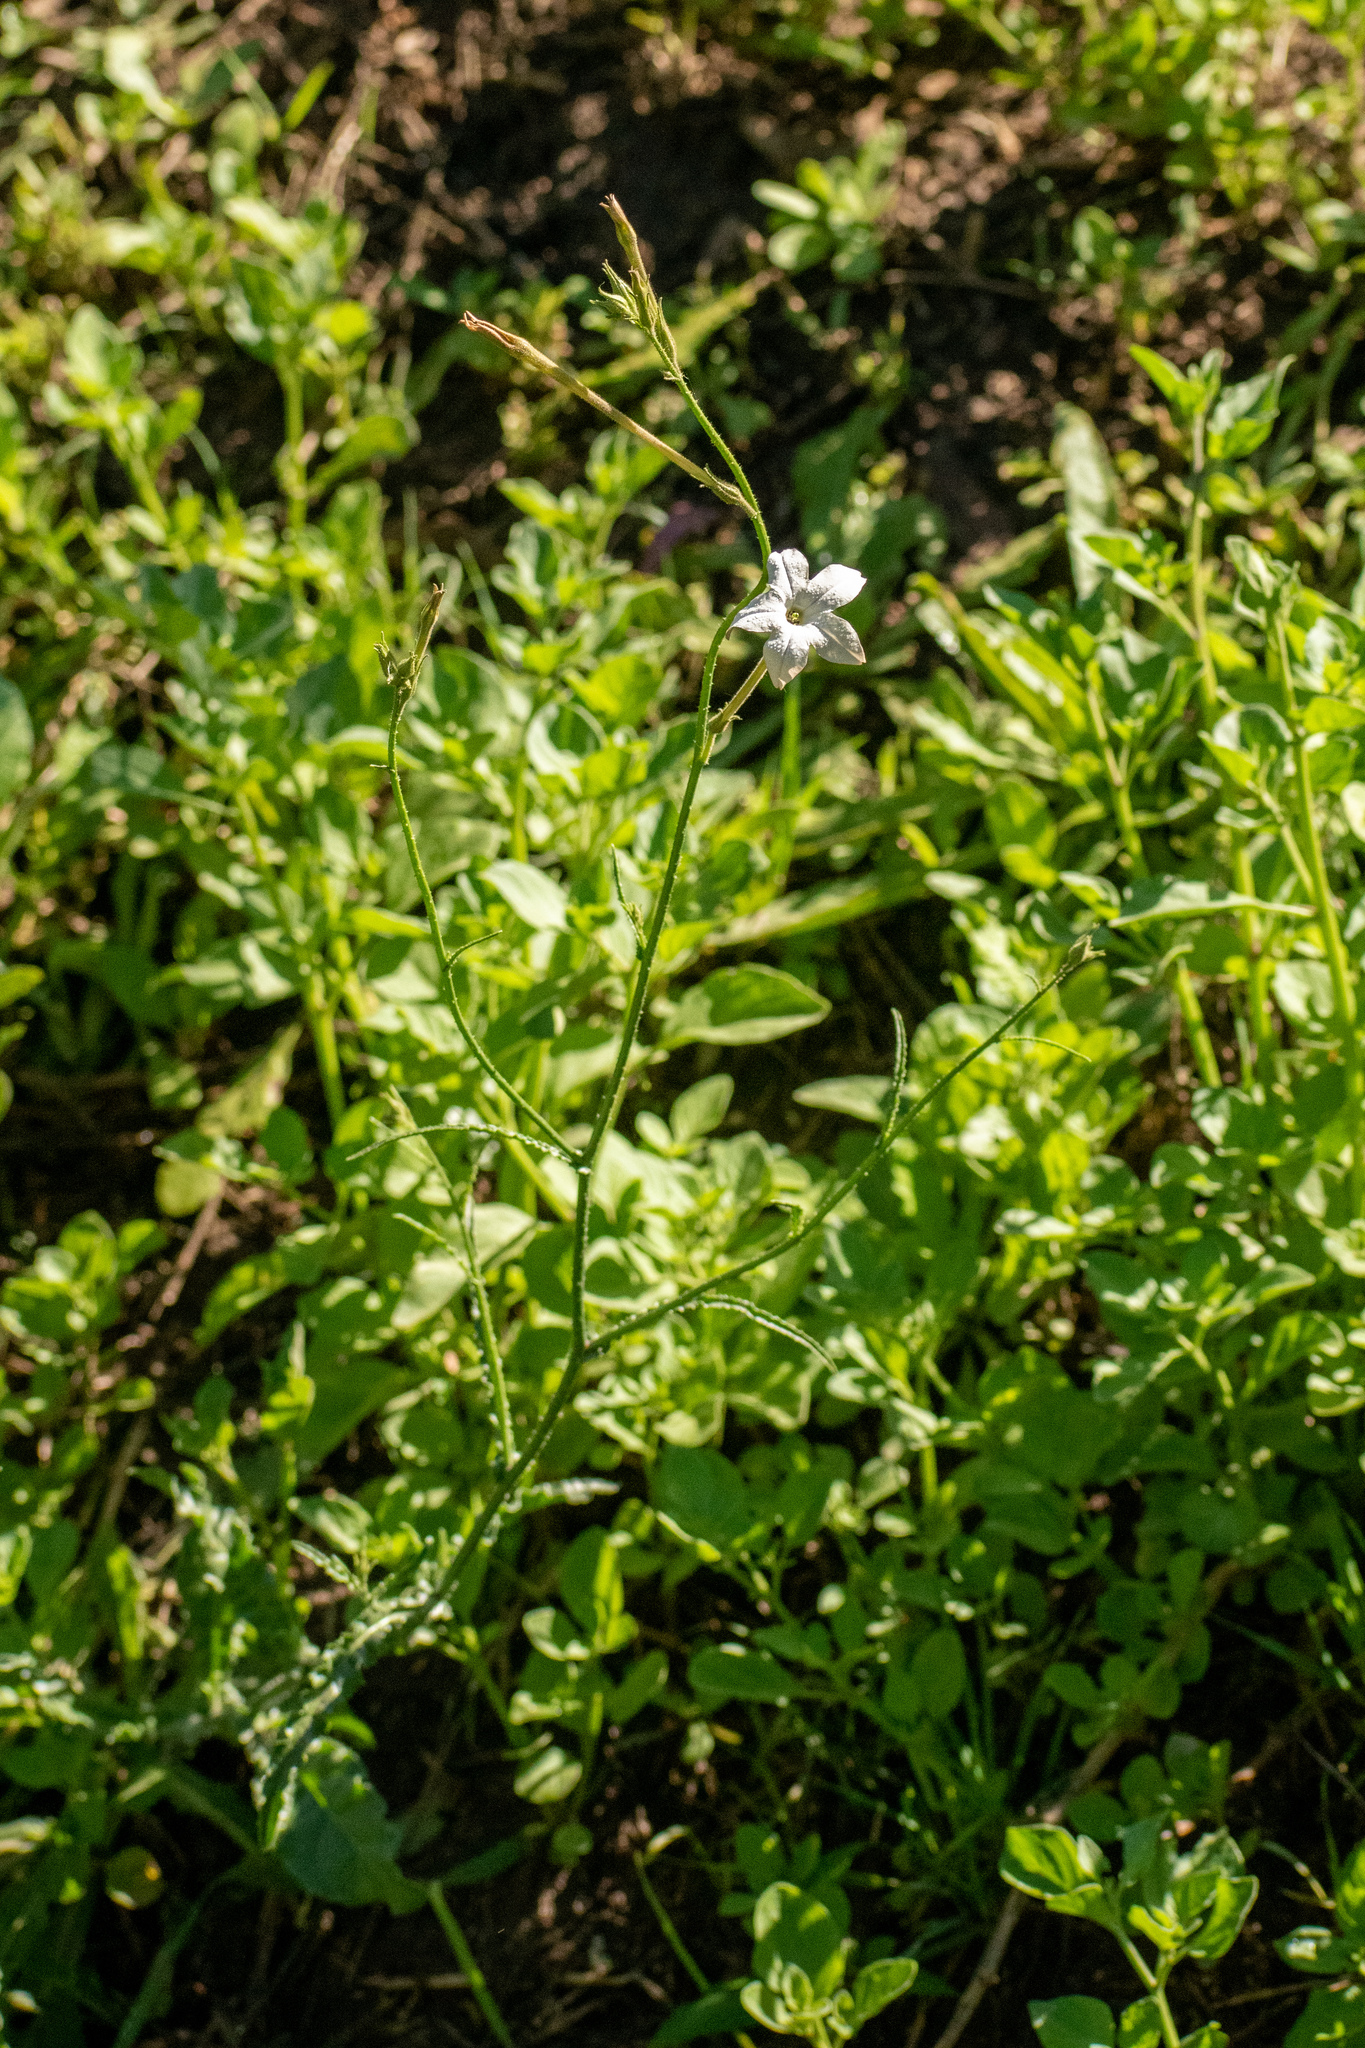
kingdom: Plantae
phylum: Tracheophyta
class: Magnoliopsida
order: Solanales
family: Solanaceae
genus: Nicotiana
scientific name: Nicotiana longiflora
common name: Long-flowered tobacco
